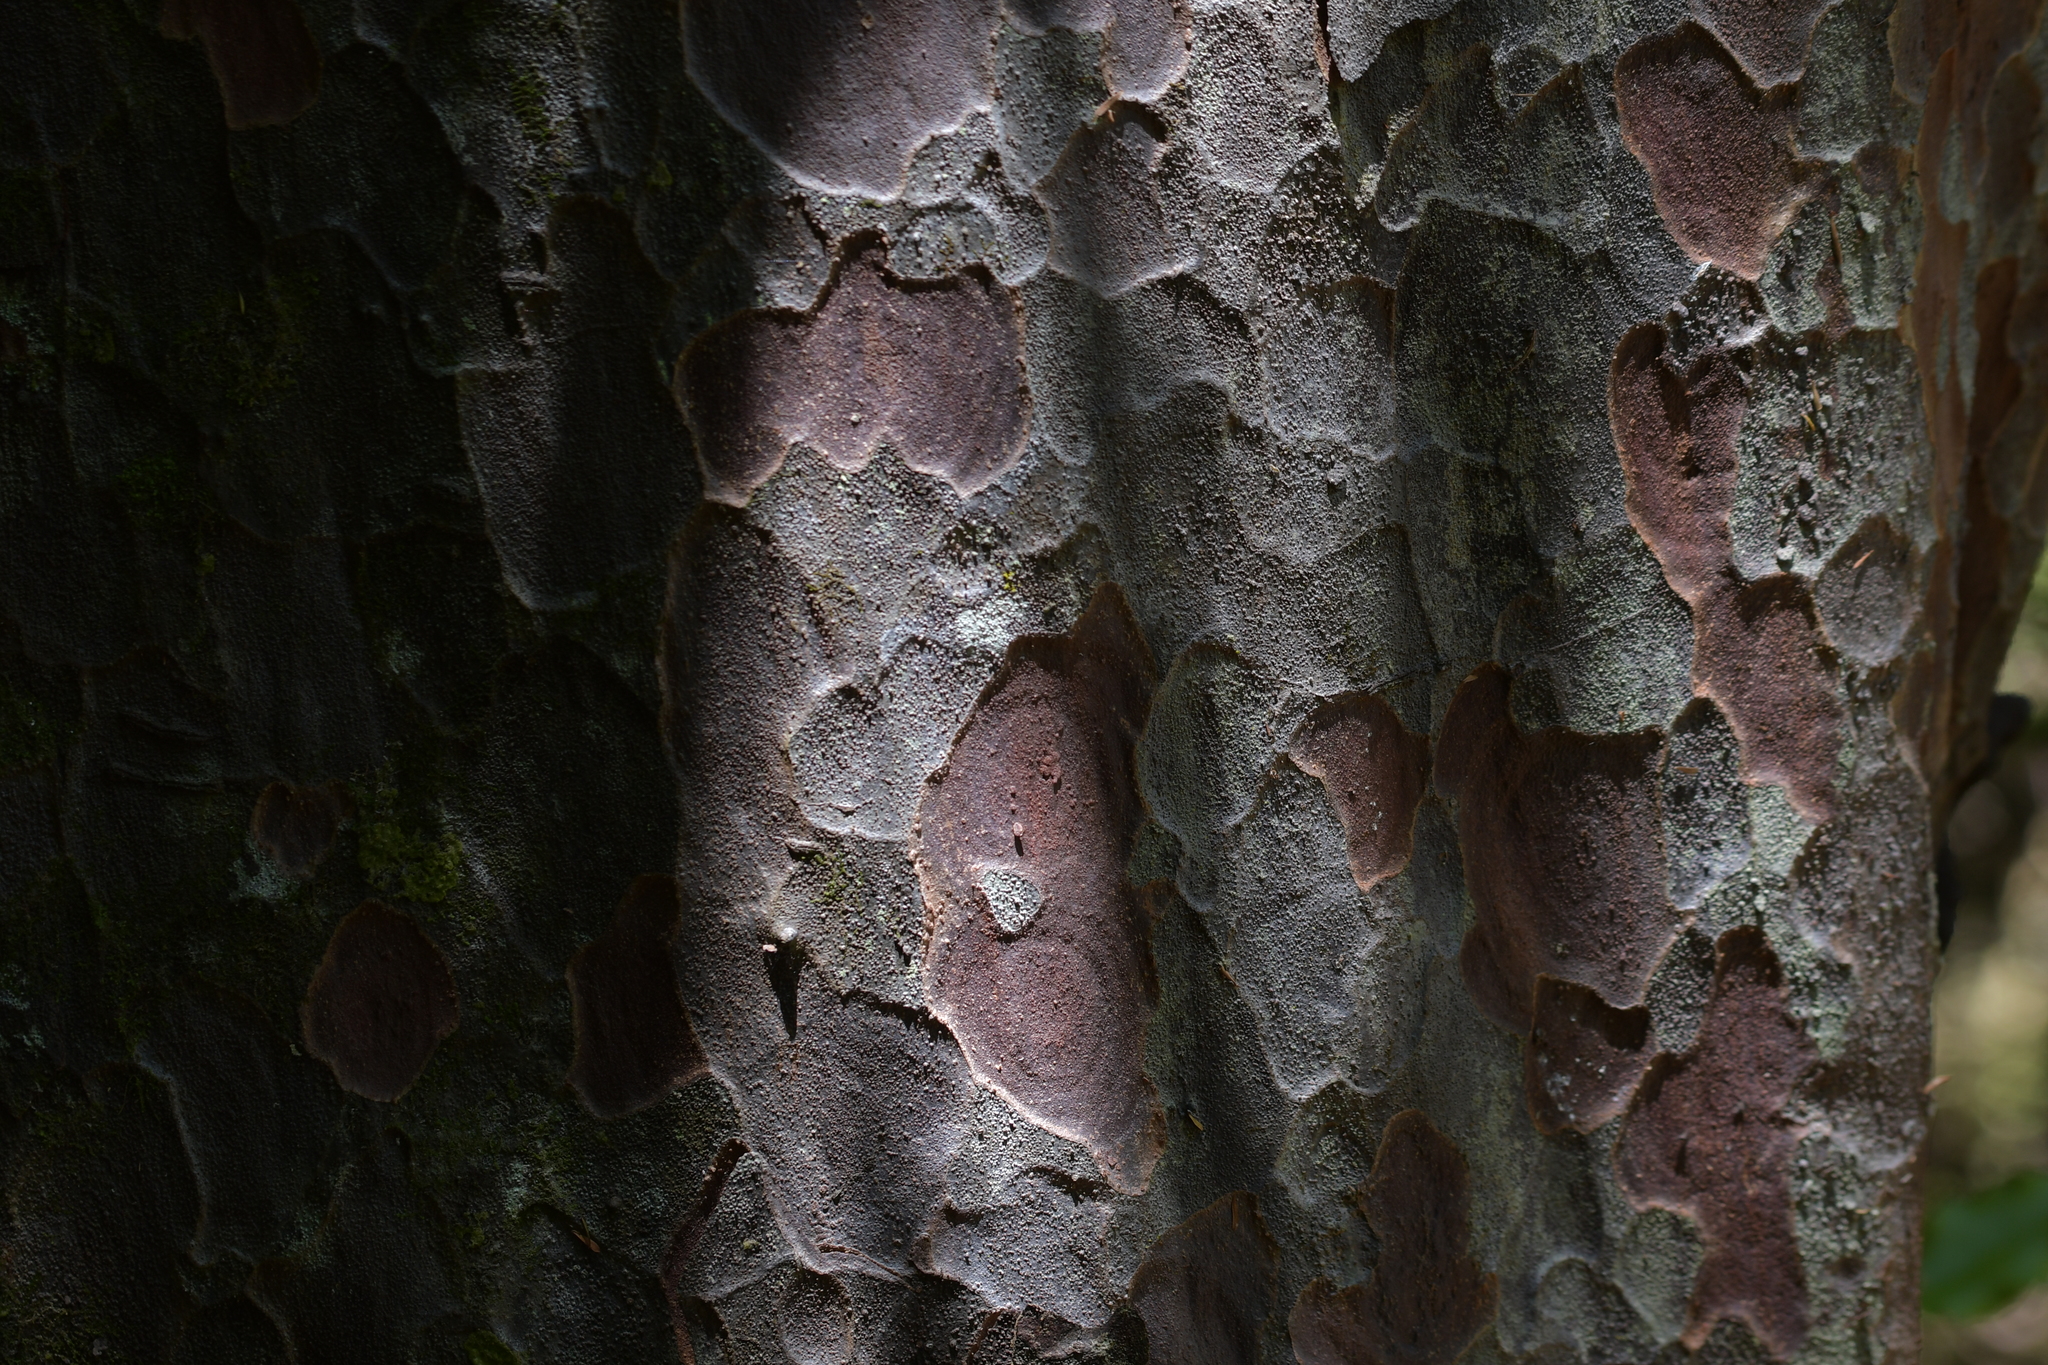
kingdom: Plantae
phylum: Tracheophyta
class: Pinopsida
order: Pinales
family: Podocarpaceae
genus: Prumnopitys
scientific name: Prumnopitys taxifolia
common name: Matai
